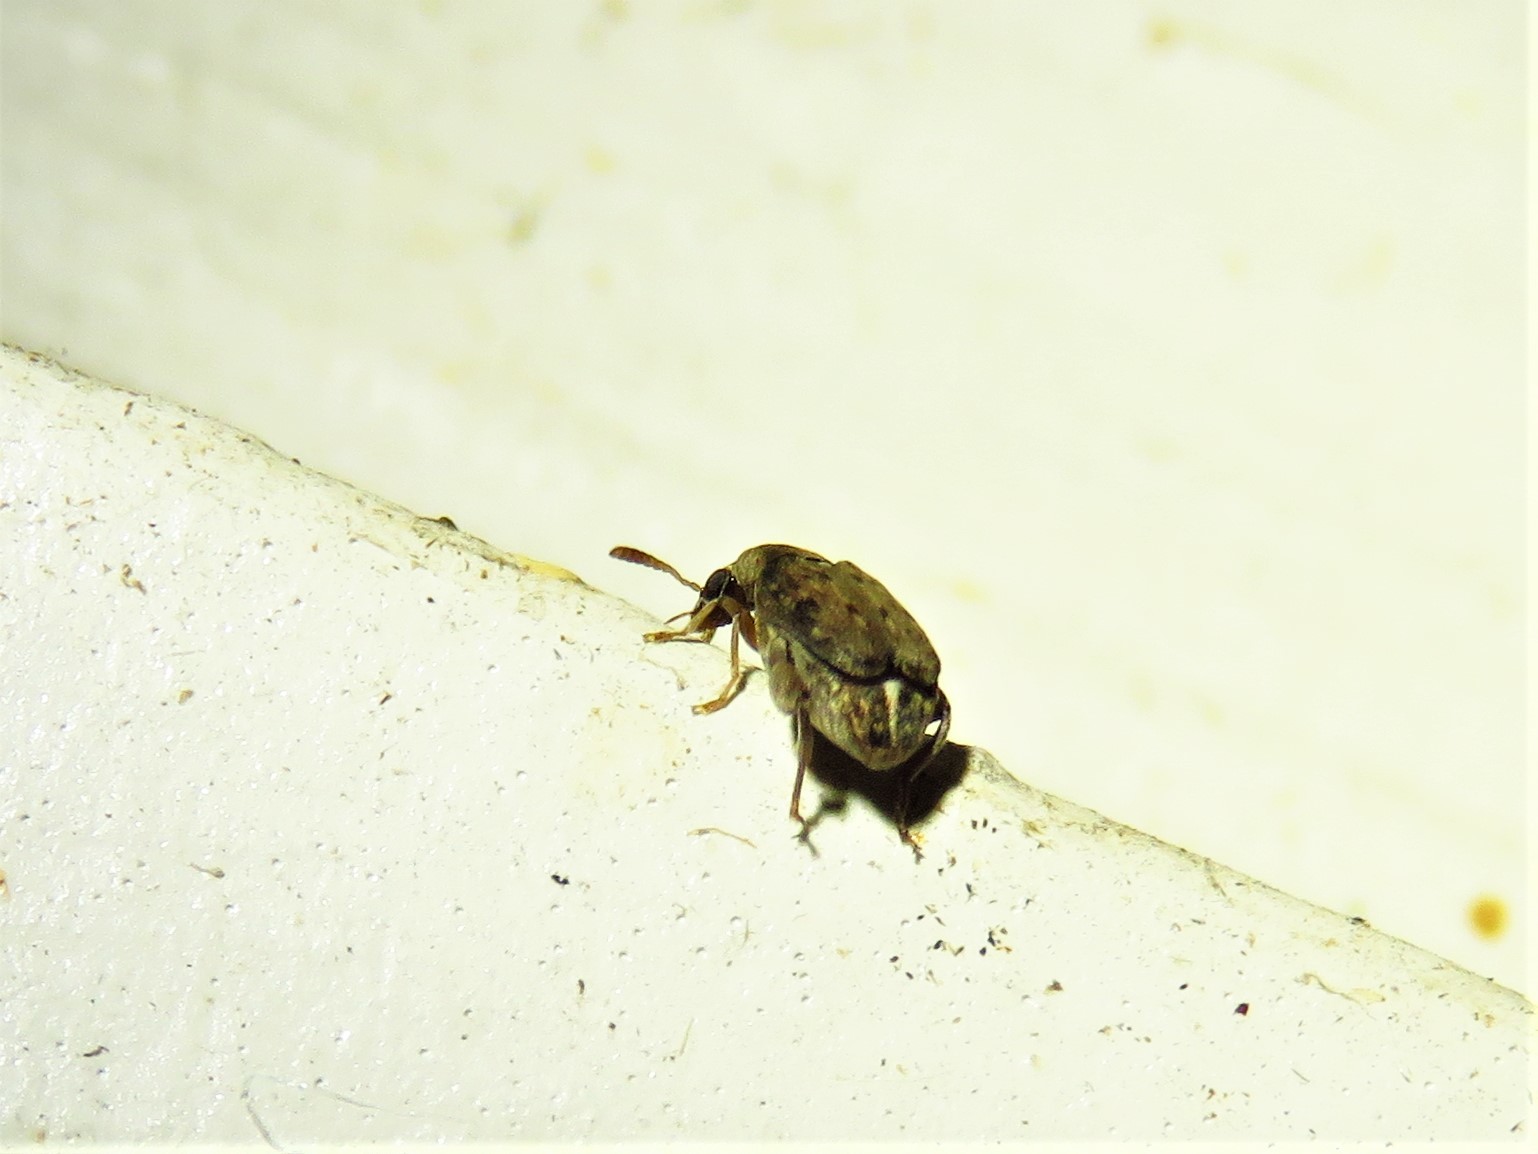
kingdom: Animalia
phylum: Arthropoda
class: Insecta
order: Coleoptera
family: Chrysomelidae
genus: Merobruchus
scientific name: Merobruchus insolitus
